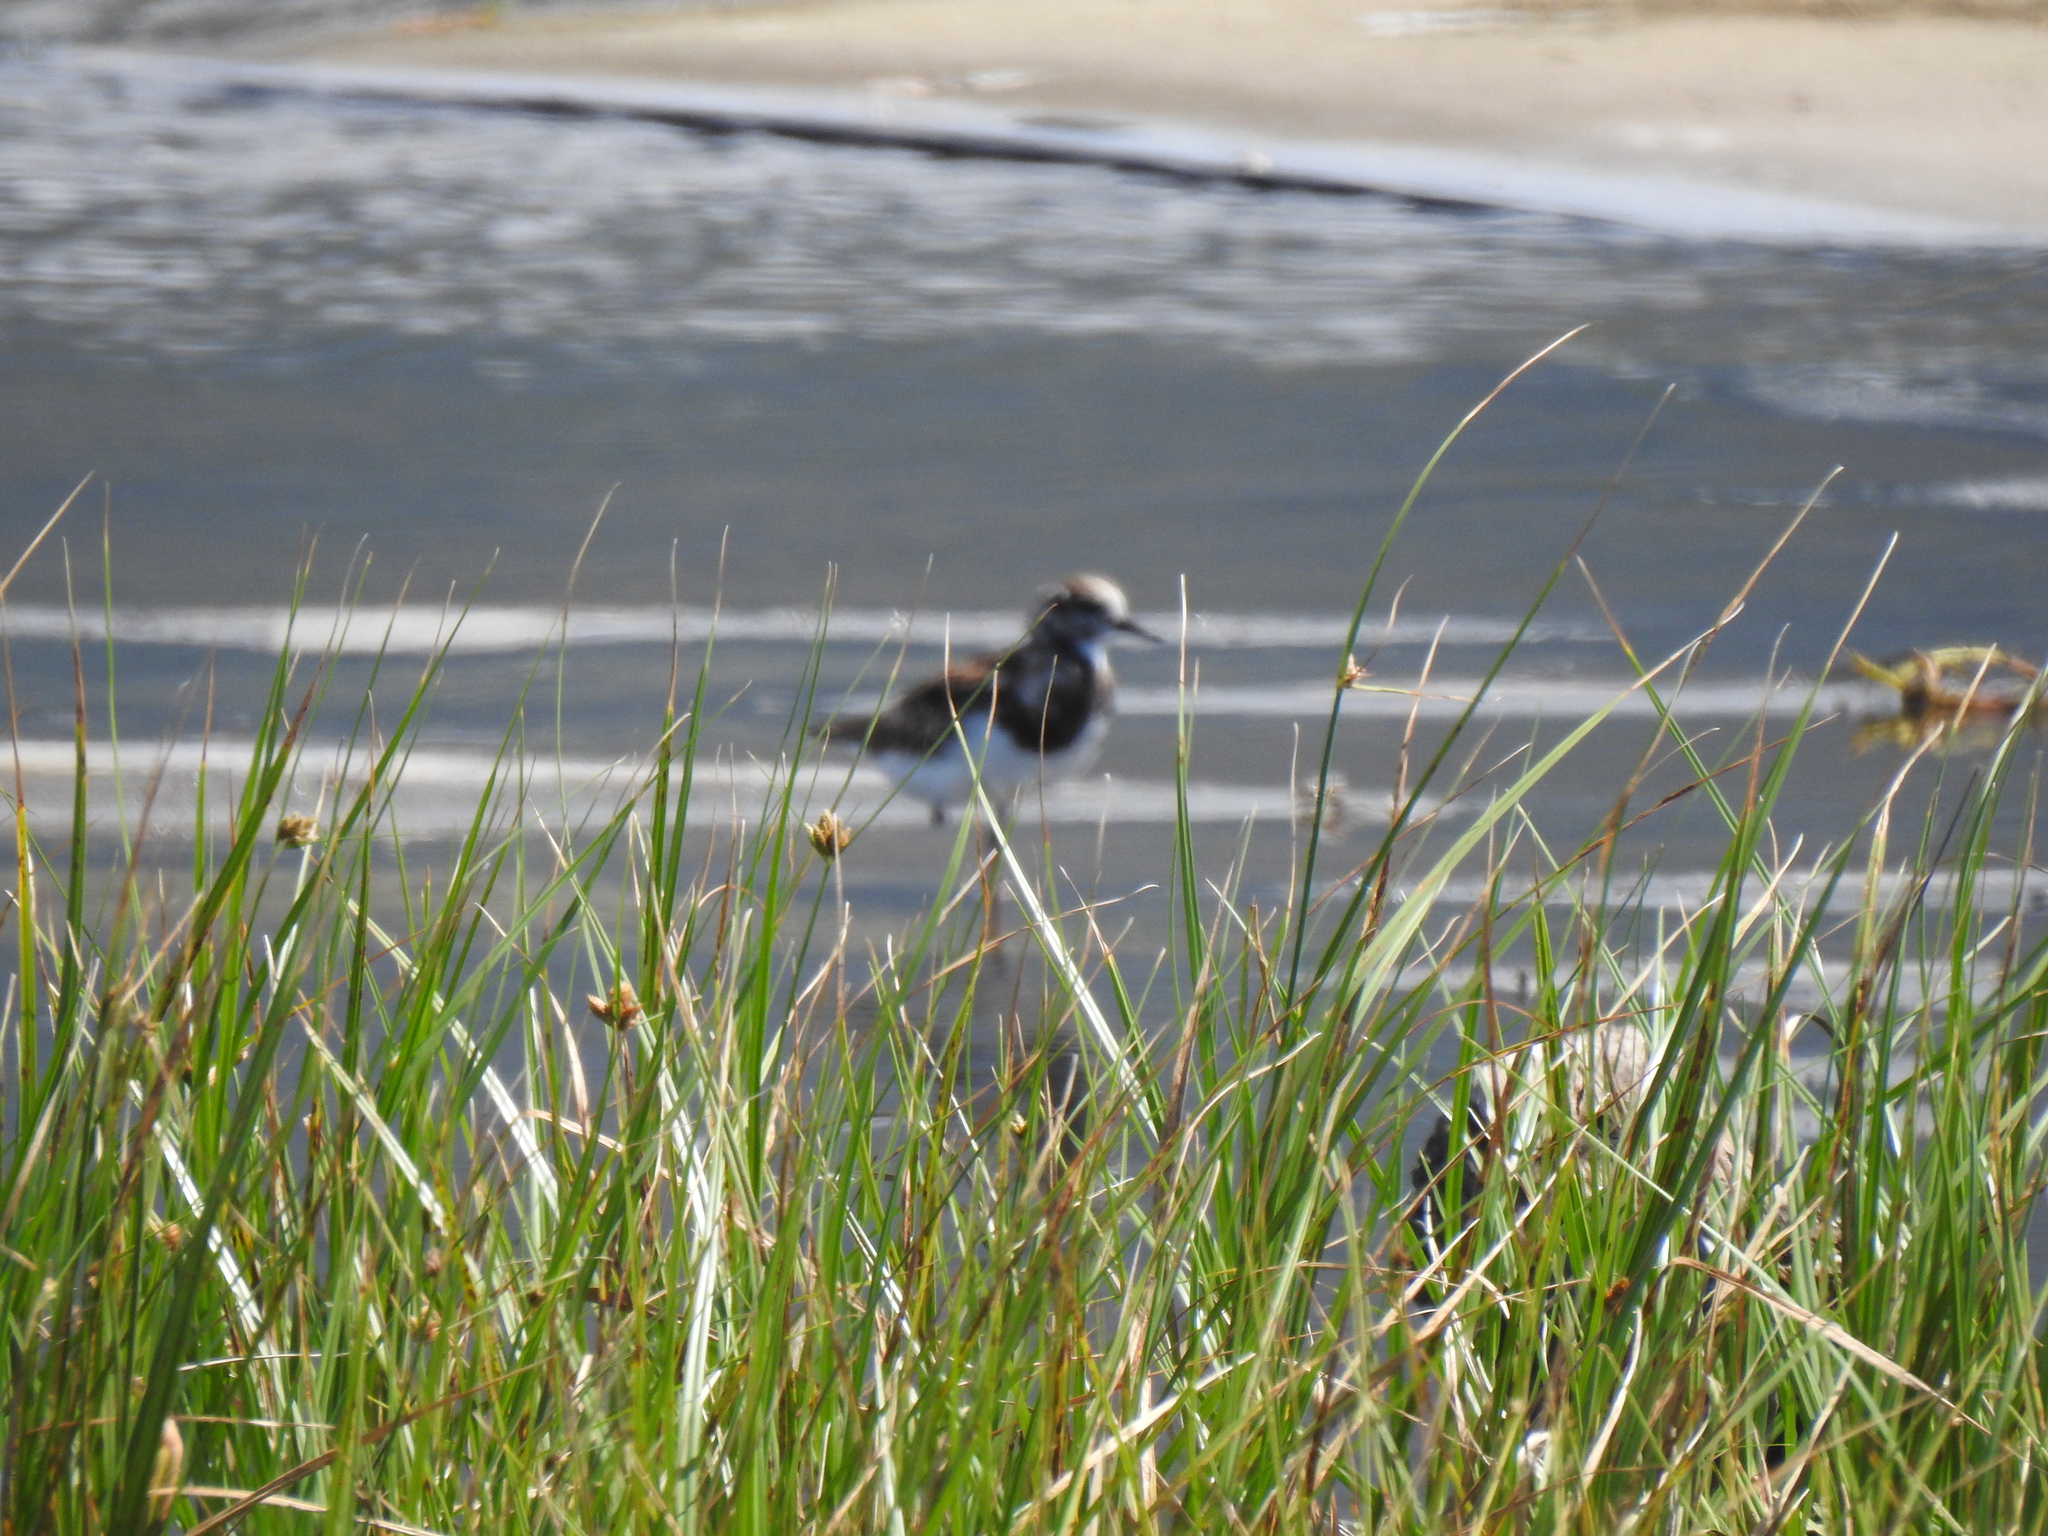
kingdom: Animalia
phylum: Chordata
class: Aves
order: Charadriiformes
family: Scolopacidae
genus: Arenaria
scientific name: Arenaria interpres
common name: Ruddy turnstone
